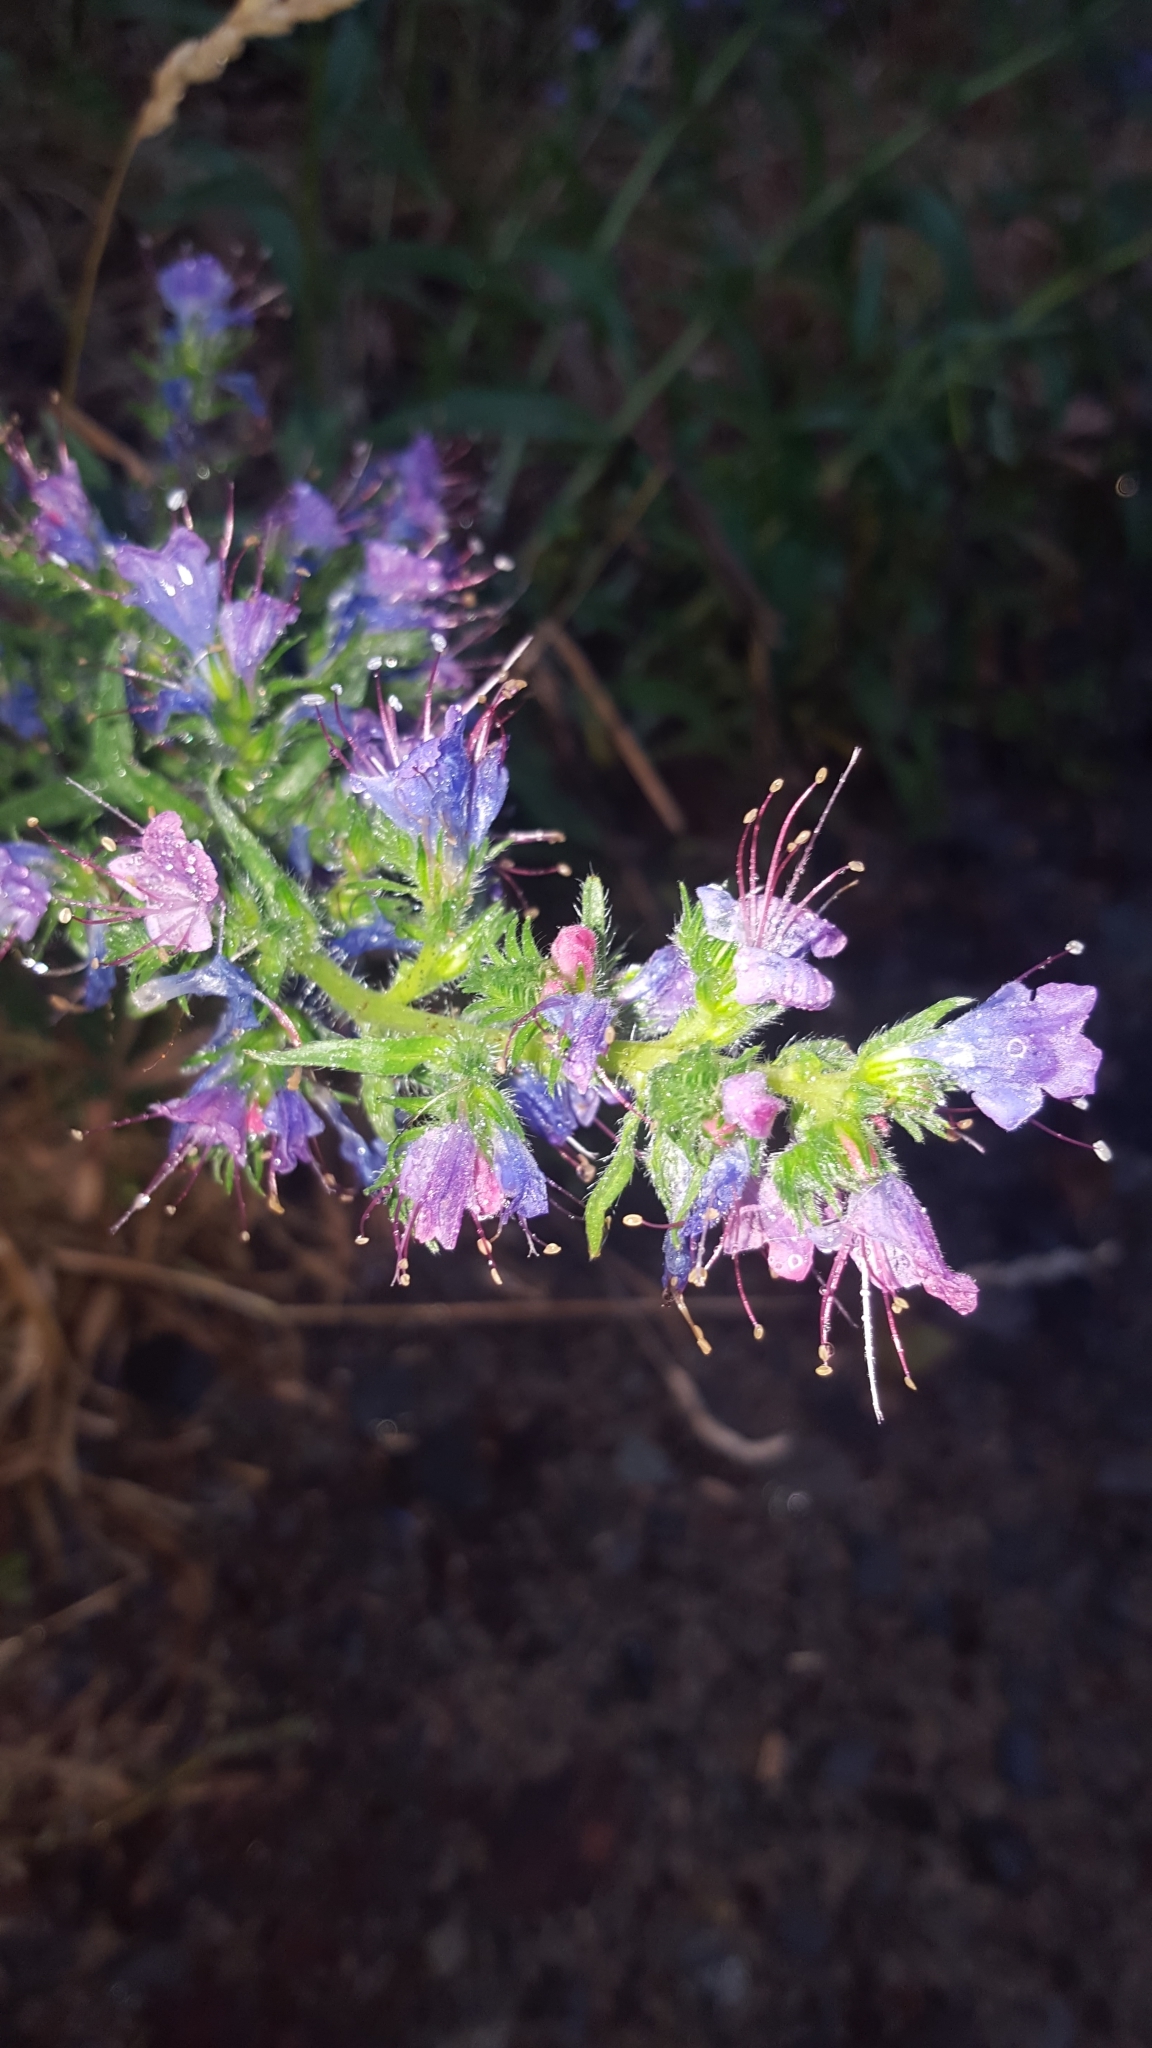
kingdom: Plantae
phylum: Tracheophyta
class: Magnoliopsida
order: Boraginales
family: Boraginaceae
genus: Echium
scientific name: Echium vulgare
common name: Common viper's bugloss
